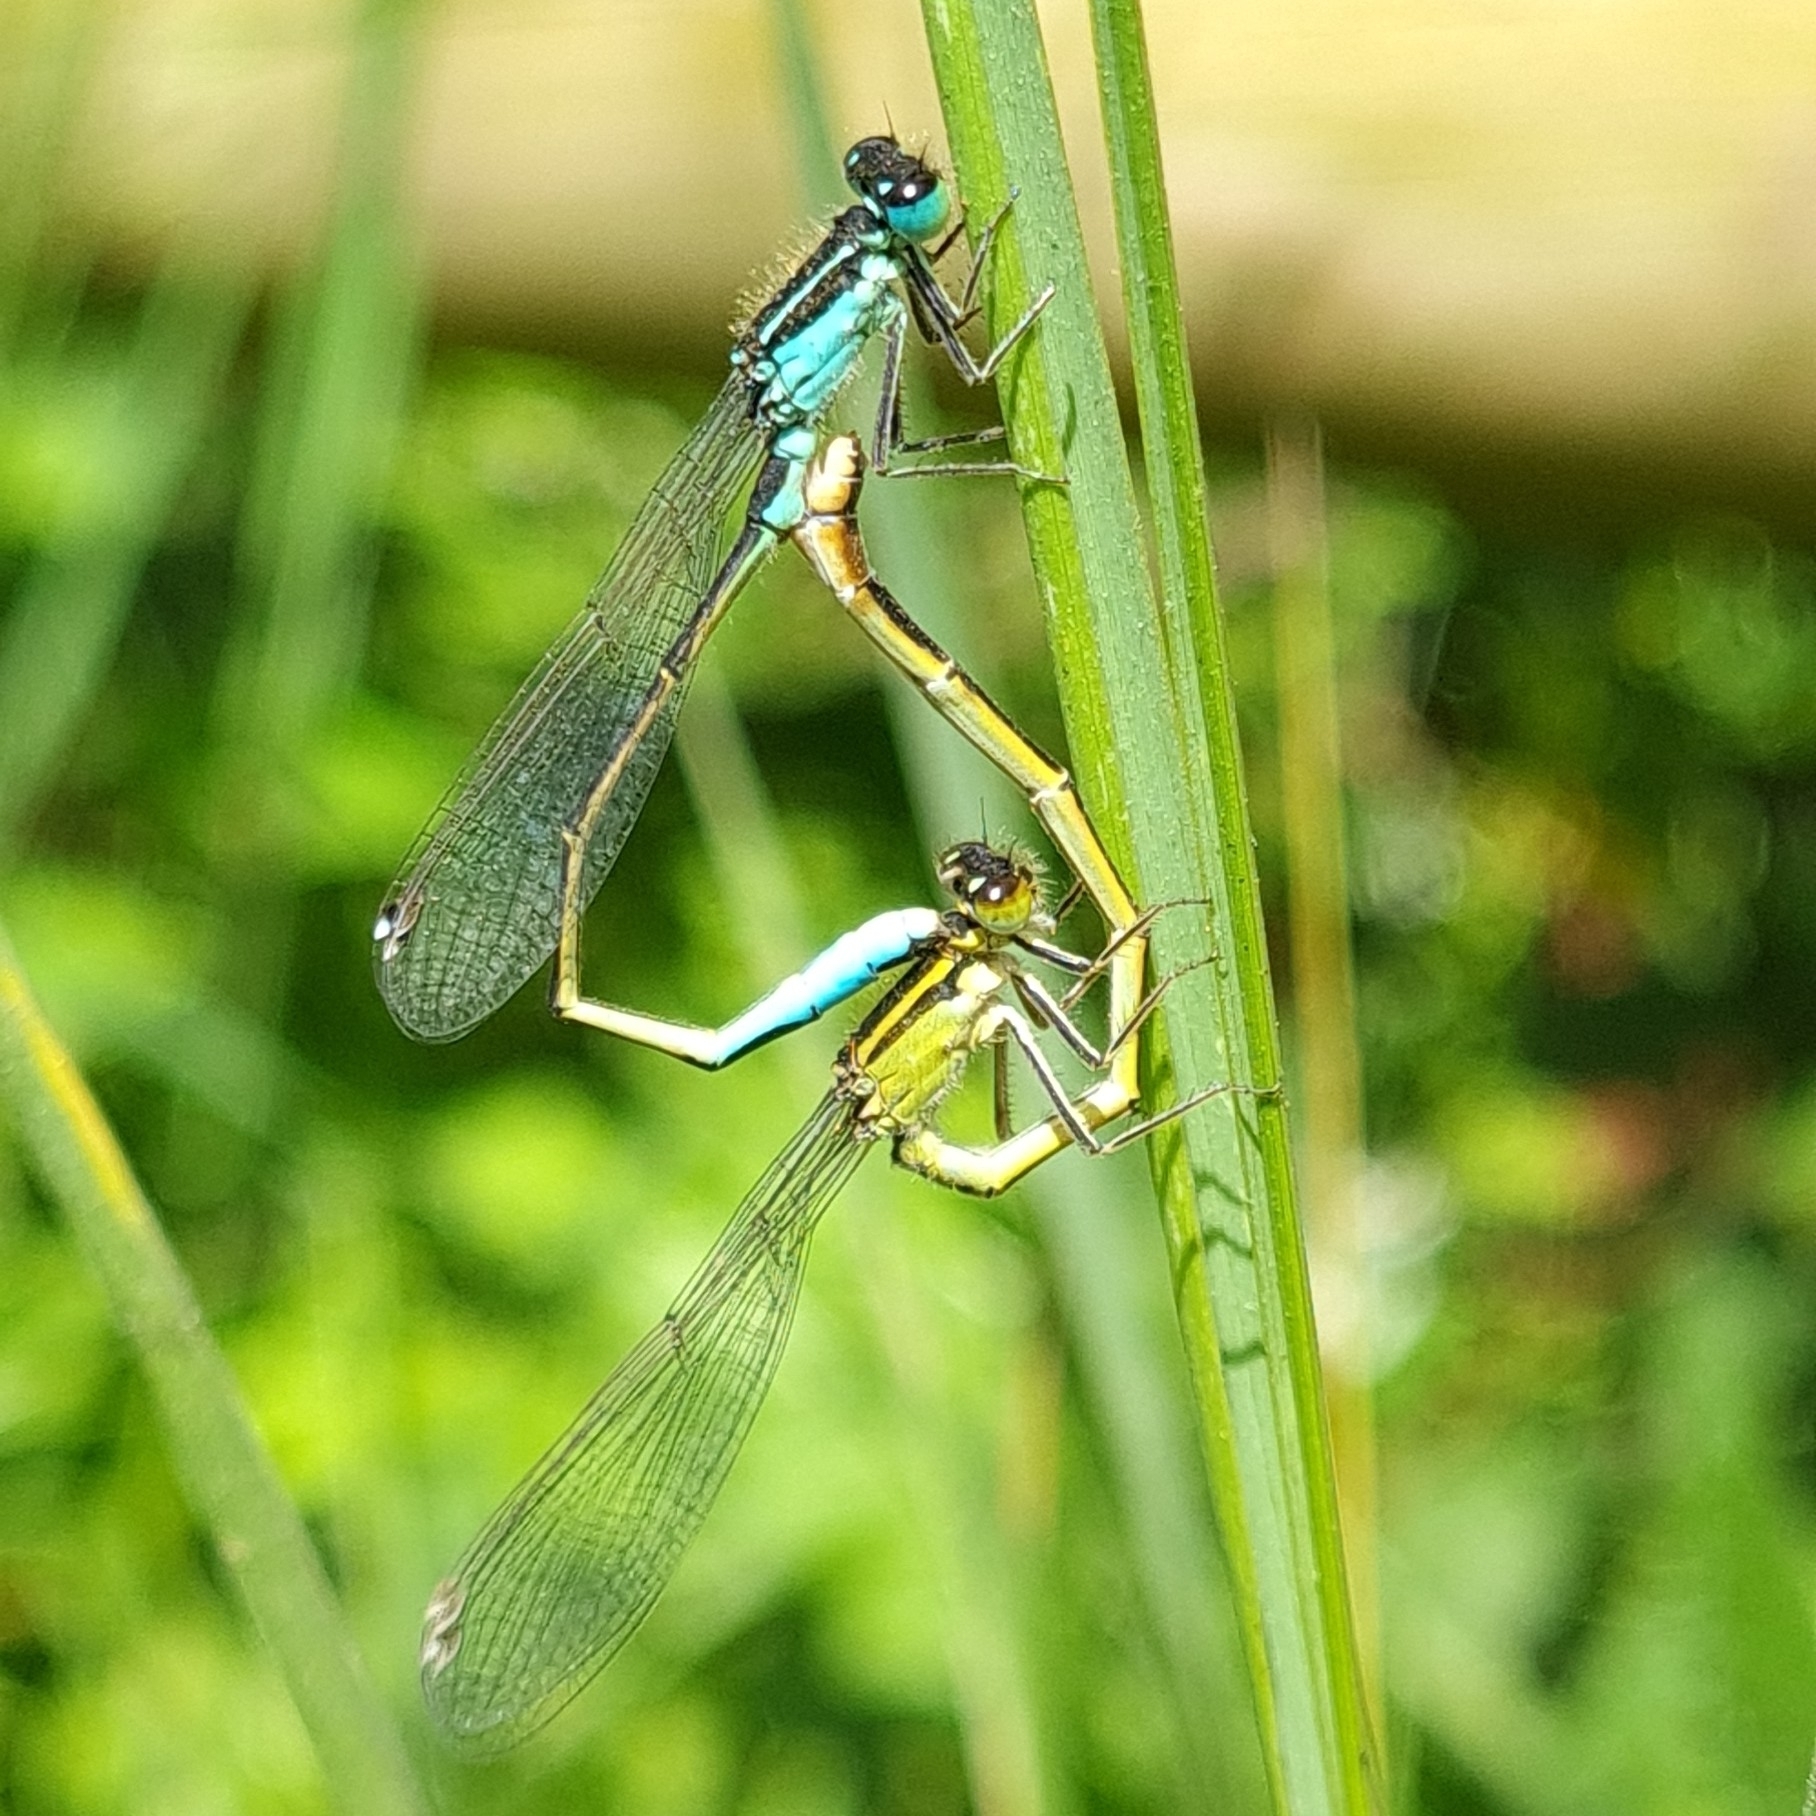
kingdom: Animalia
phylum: Arthropoda
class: Insecta
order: Odonata
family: Coenagrionidae
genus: Ischnura
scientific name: Ischnura elegans
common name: Blue-tailed damselfly
